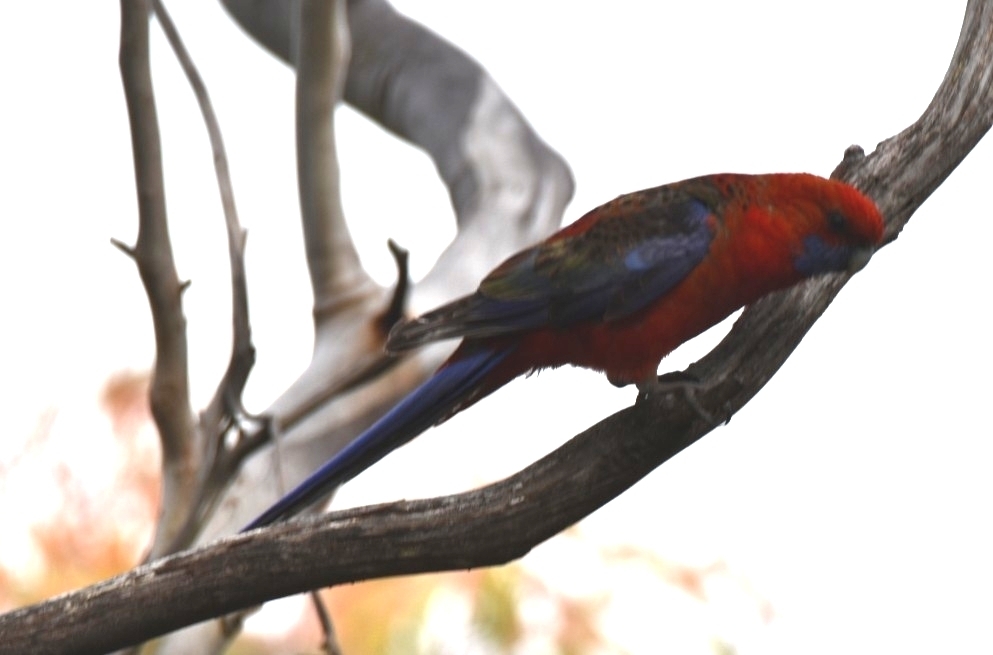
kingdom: Animalia
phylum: Chordata
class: Aves
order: Psittaciformes
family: Psittacidae
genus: Platycercus
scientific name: Platycercus elegans
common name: Crimson rosella
